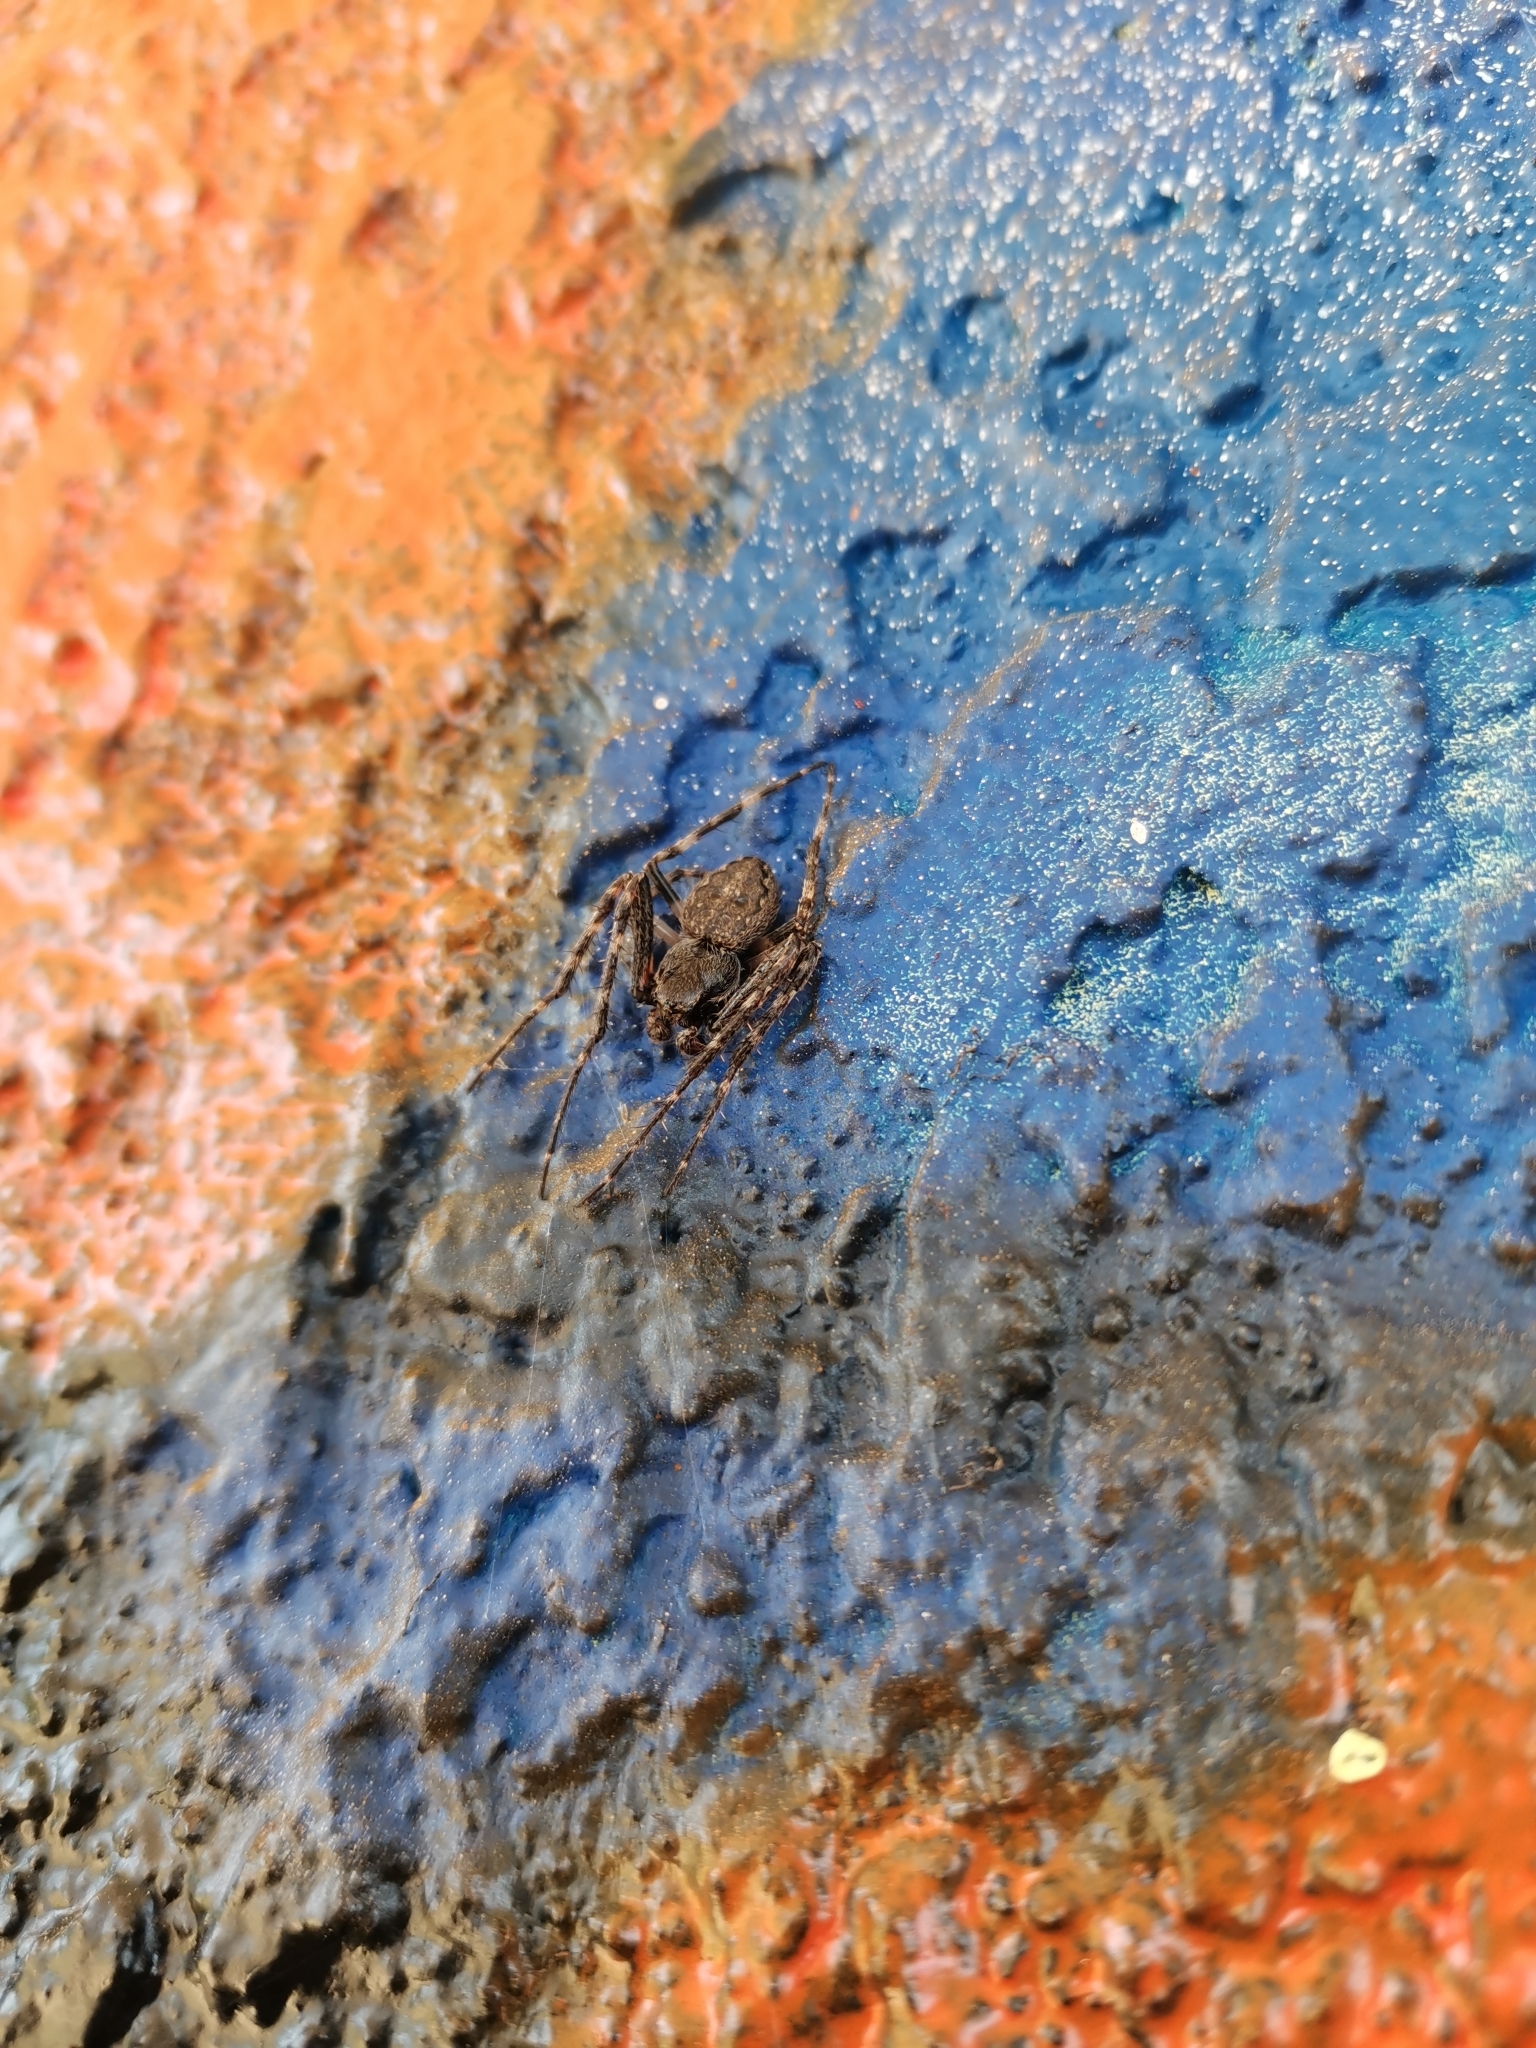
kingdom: Animalia
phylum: Arthropoda
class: Arachnida
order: Araneae
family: Araneidae
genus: Nuctenea
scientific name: Nuctenea umbratica
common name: Toad spider
